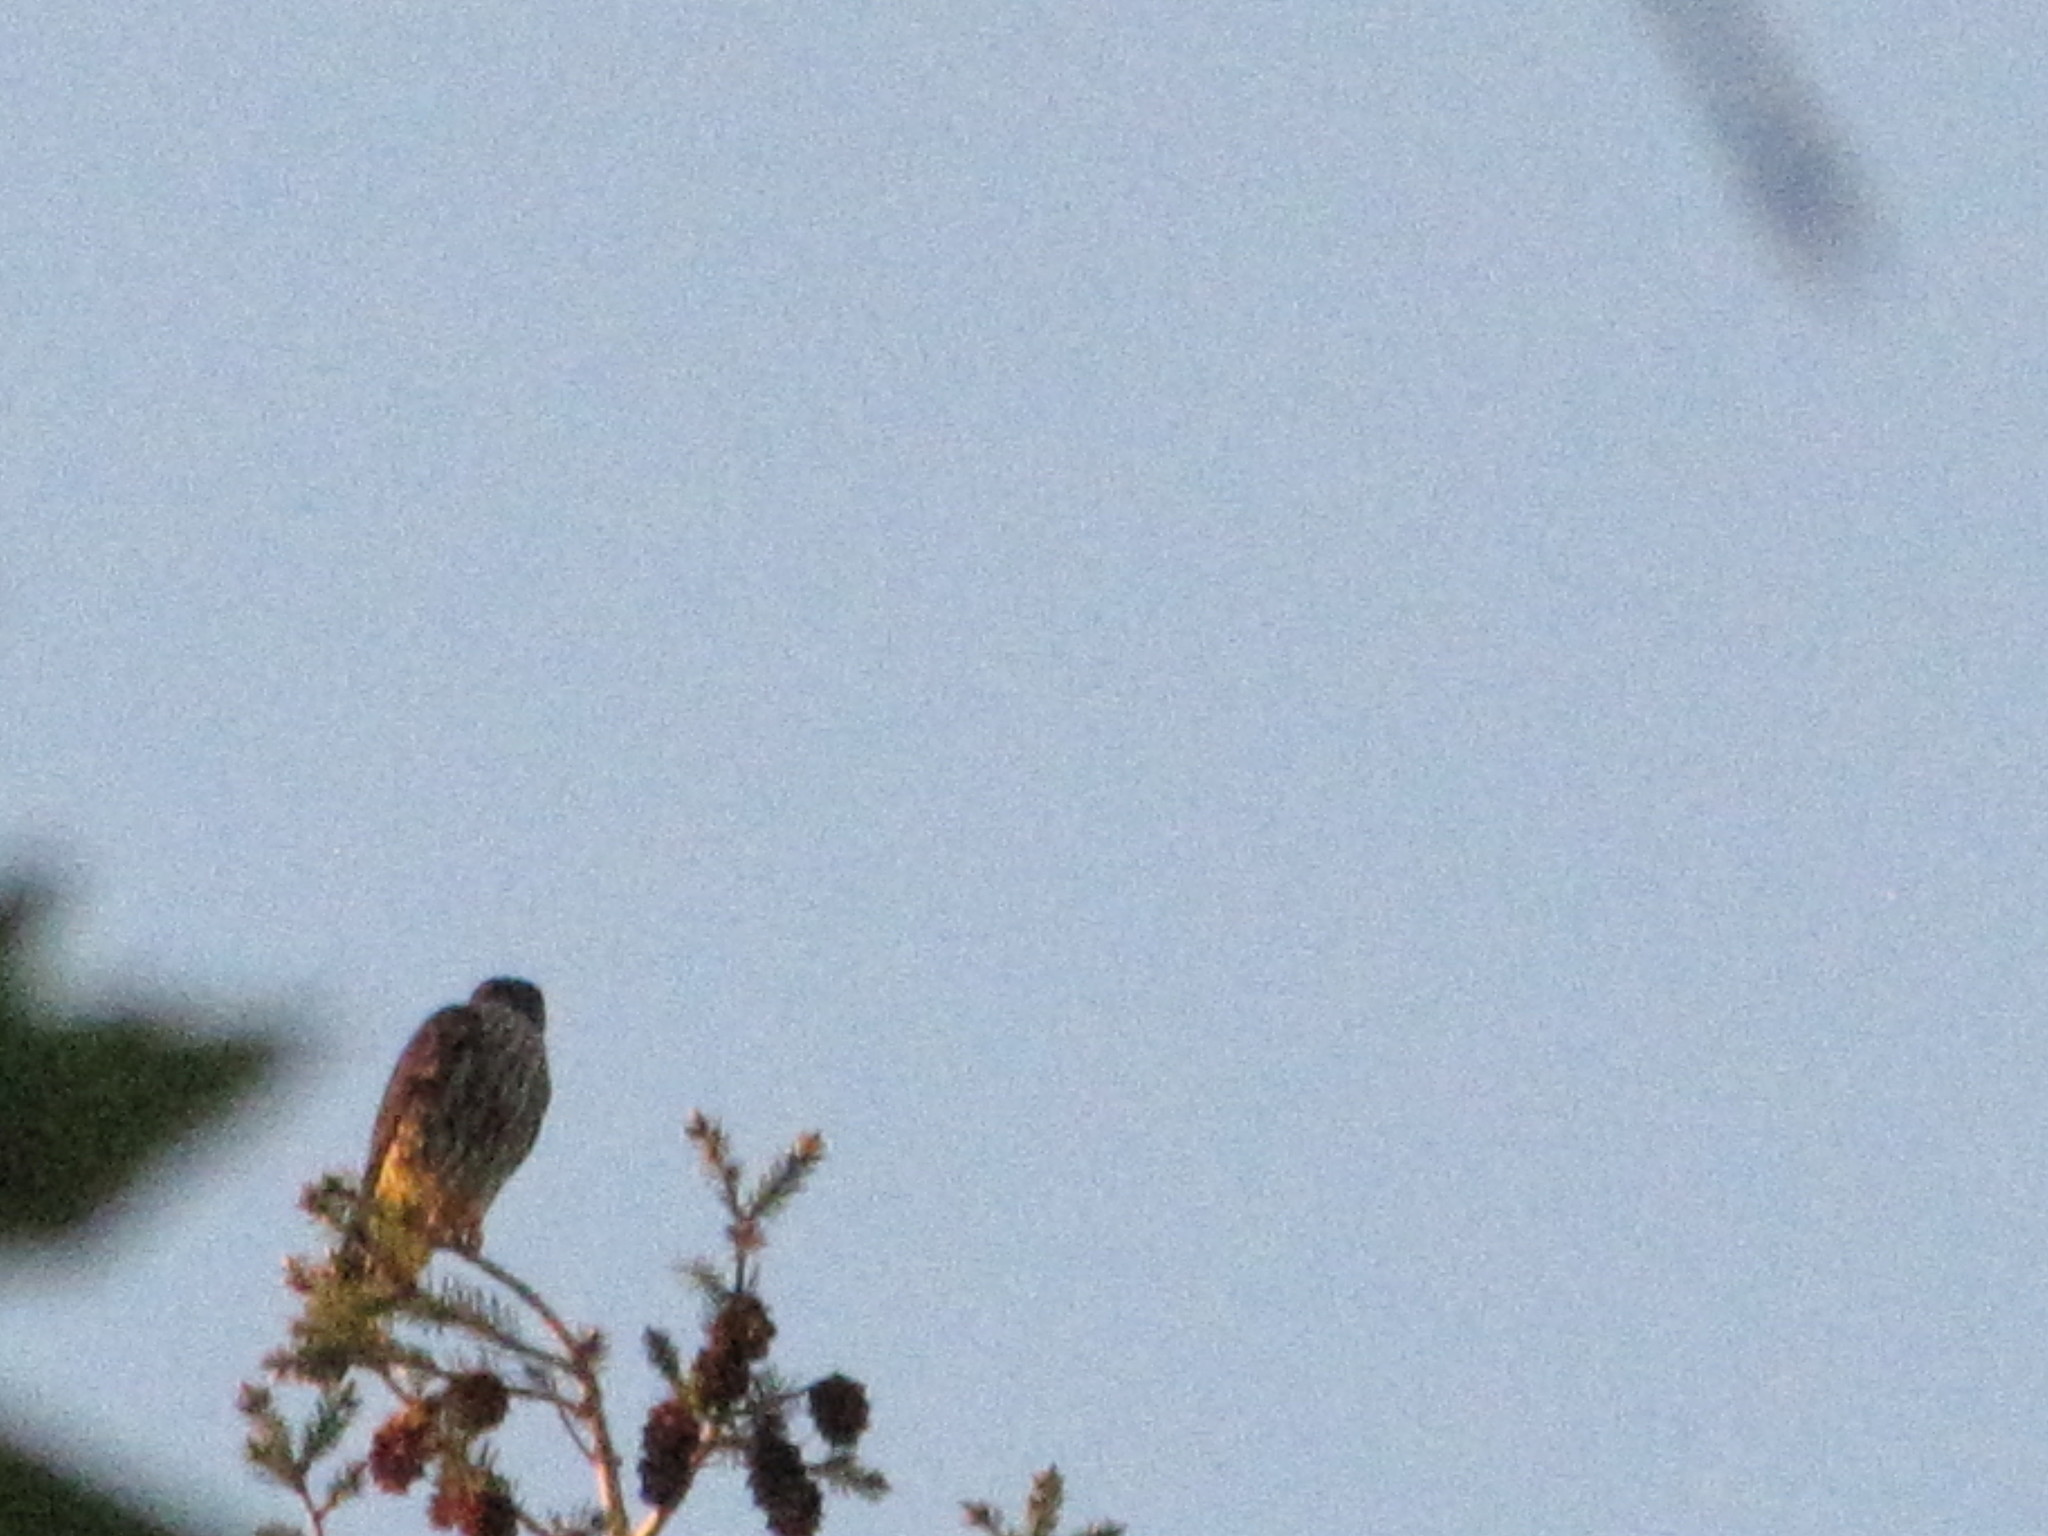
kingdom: Animalia
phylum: Chordata
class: Aves
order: Falconiformes
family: Falconidae
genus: Falco
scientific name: Falco columbarius
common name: Merlin
